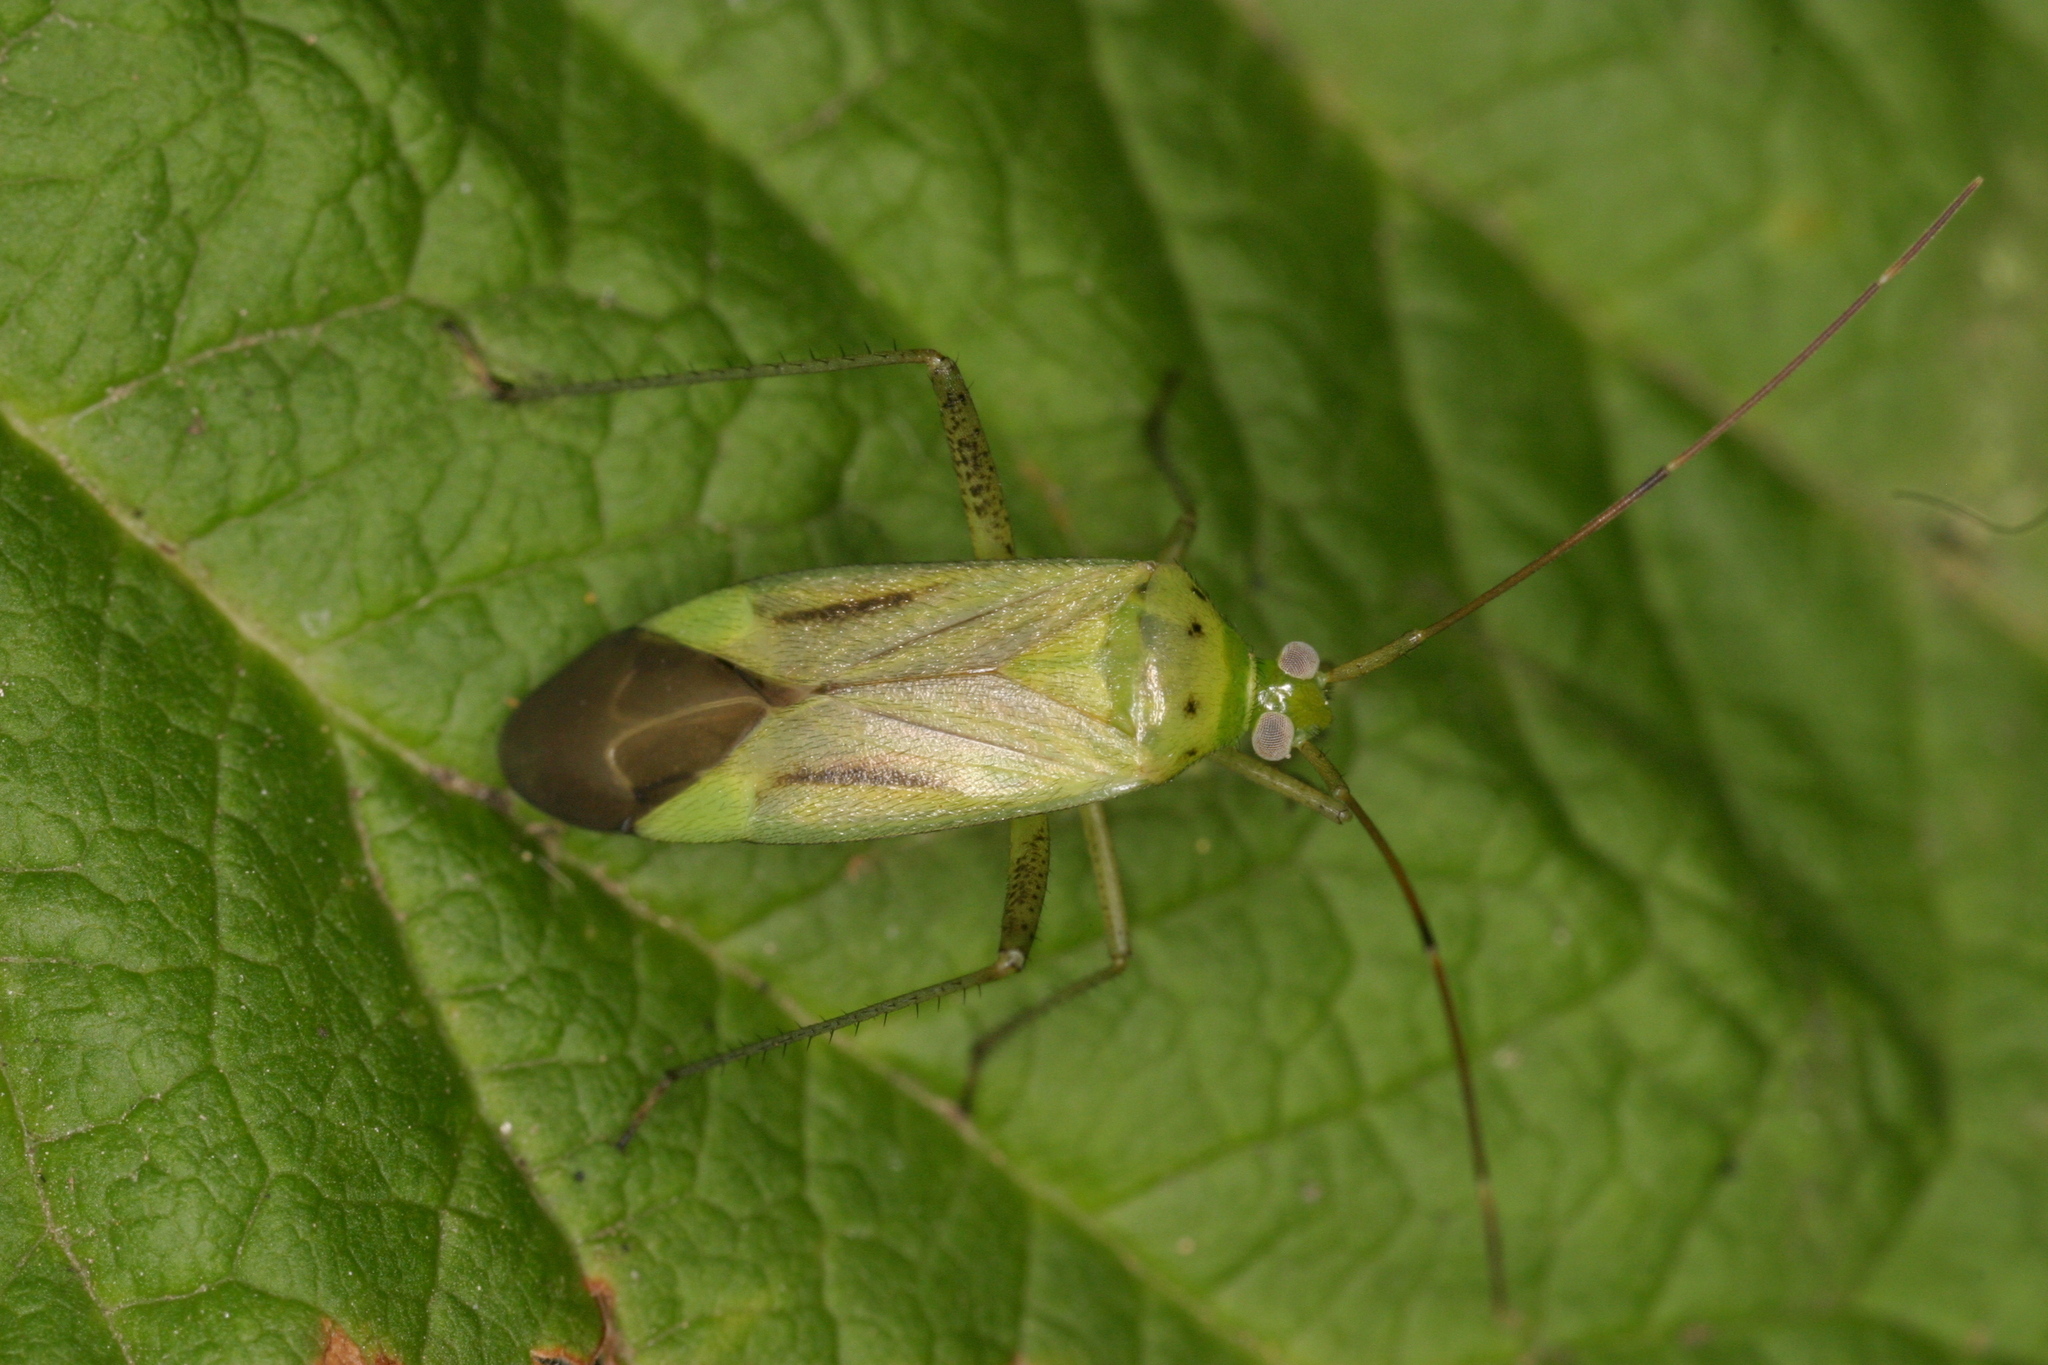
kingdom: Animalia
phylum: Arthropoda
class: Insecta
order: Hemiptera
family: Miridae
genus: Adelphocoris
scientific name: Adelphocoris quadripunctatus
